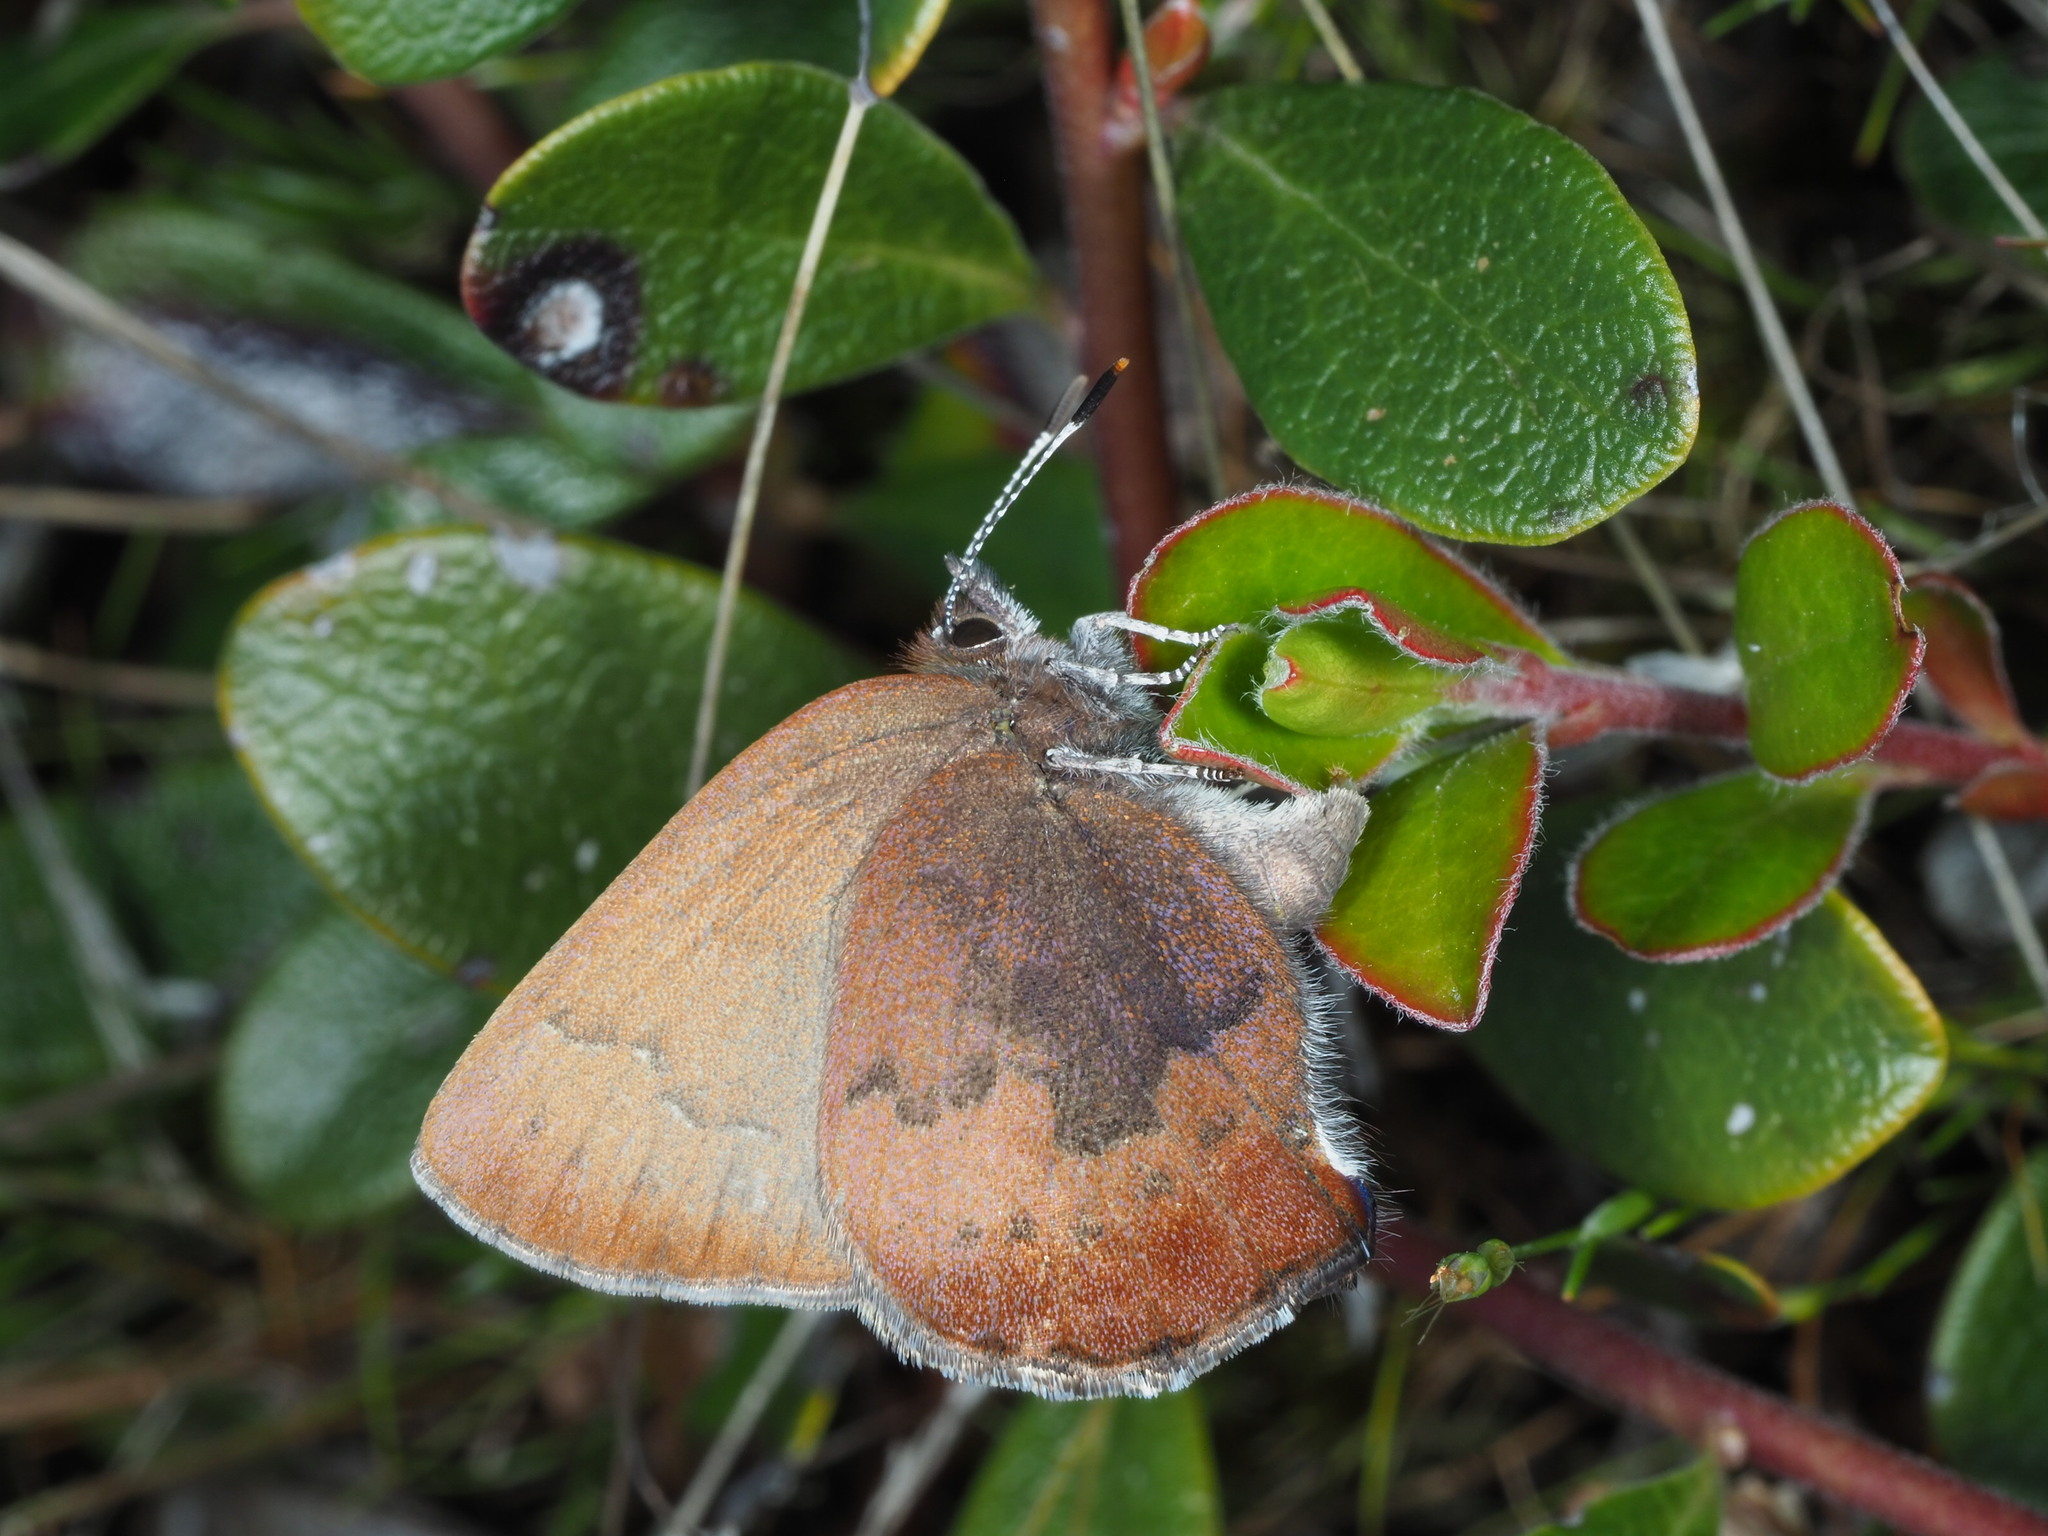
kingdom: Animalia
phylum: Arthropoda
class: Insecta
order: Lepidoptera
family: Lycaenidae
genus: Incisalia
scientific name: Incisalia irioides
